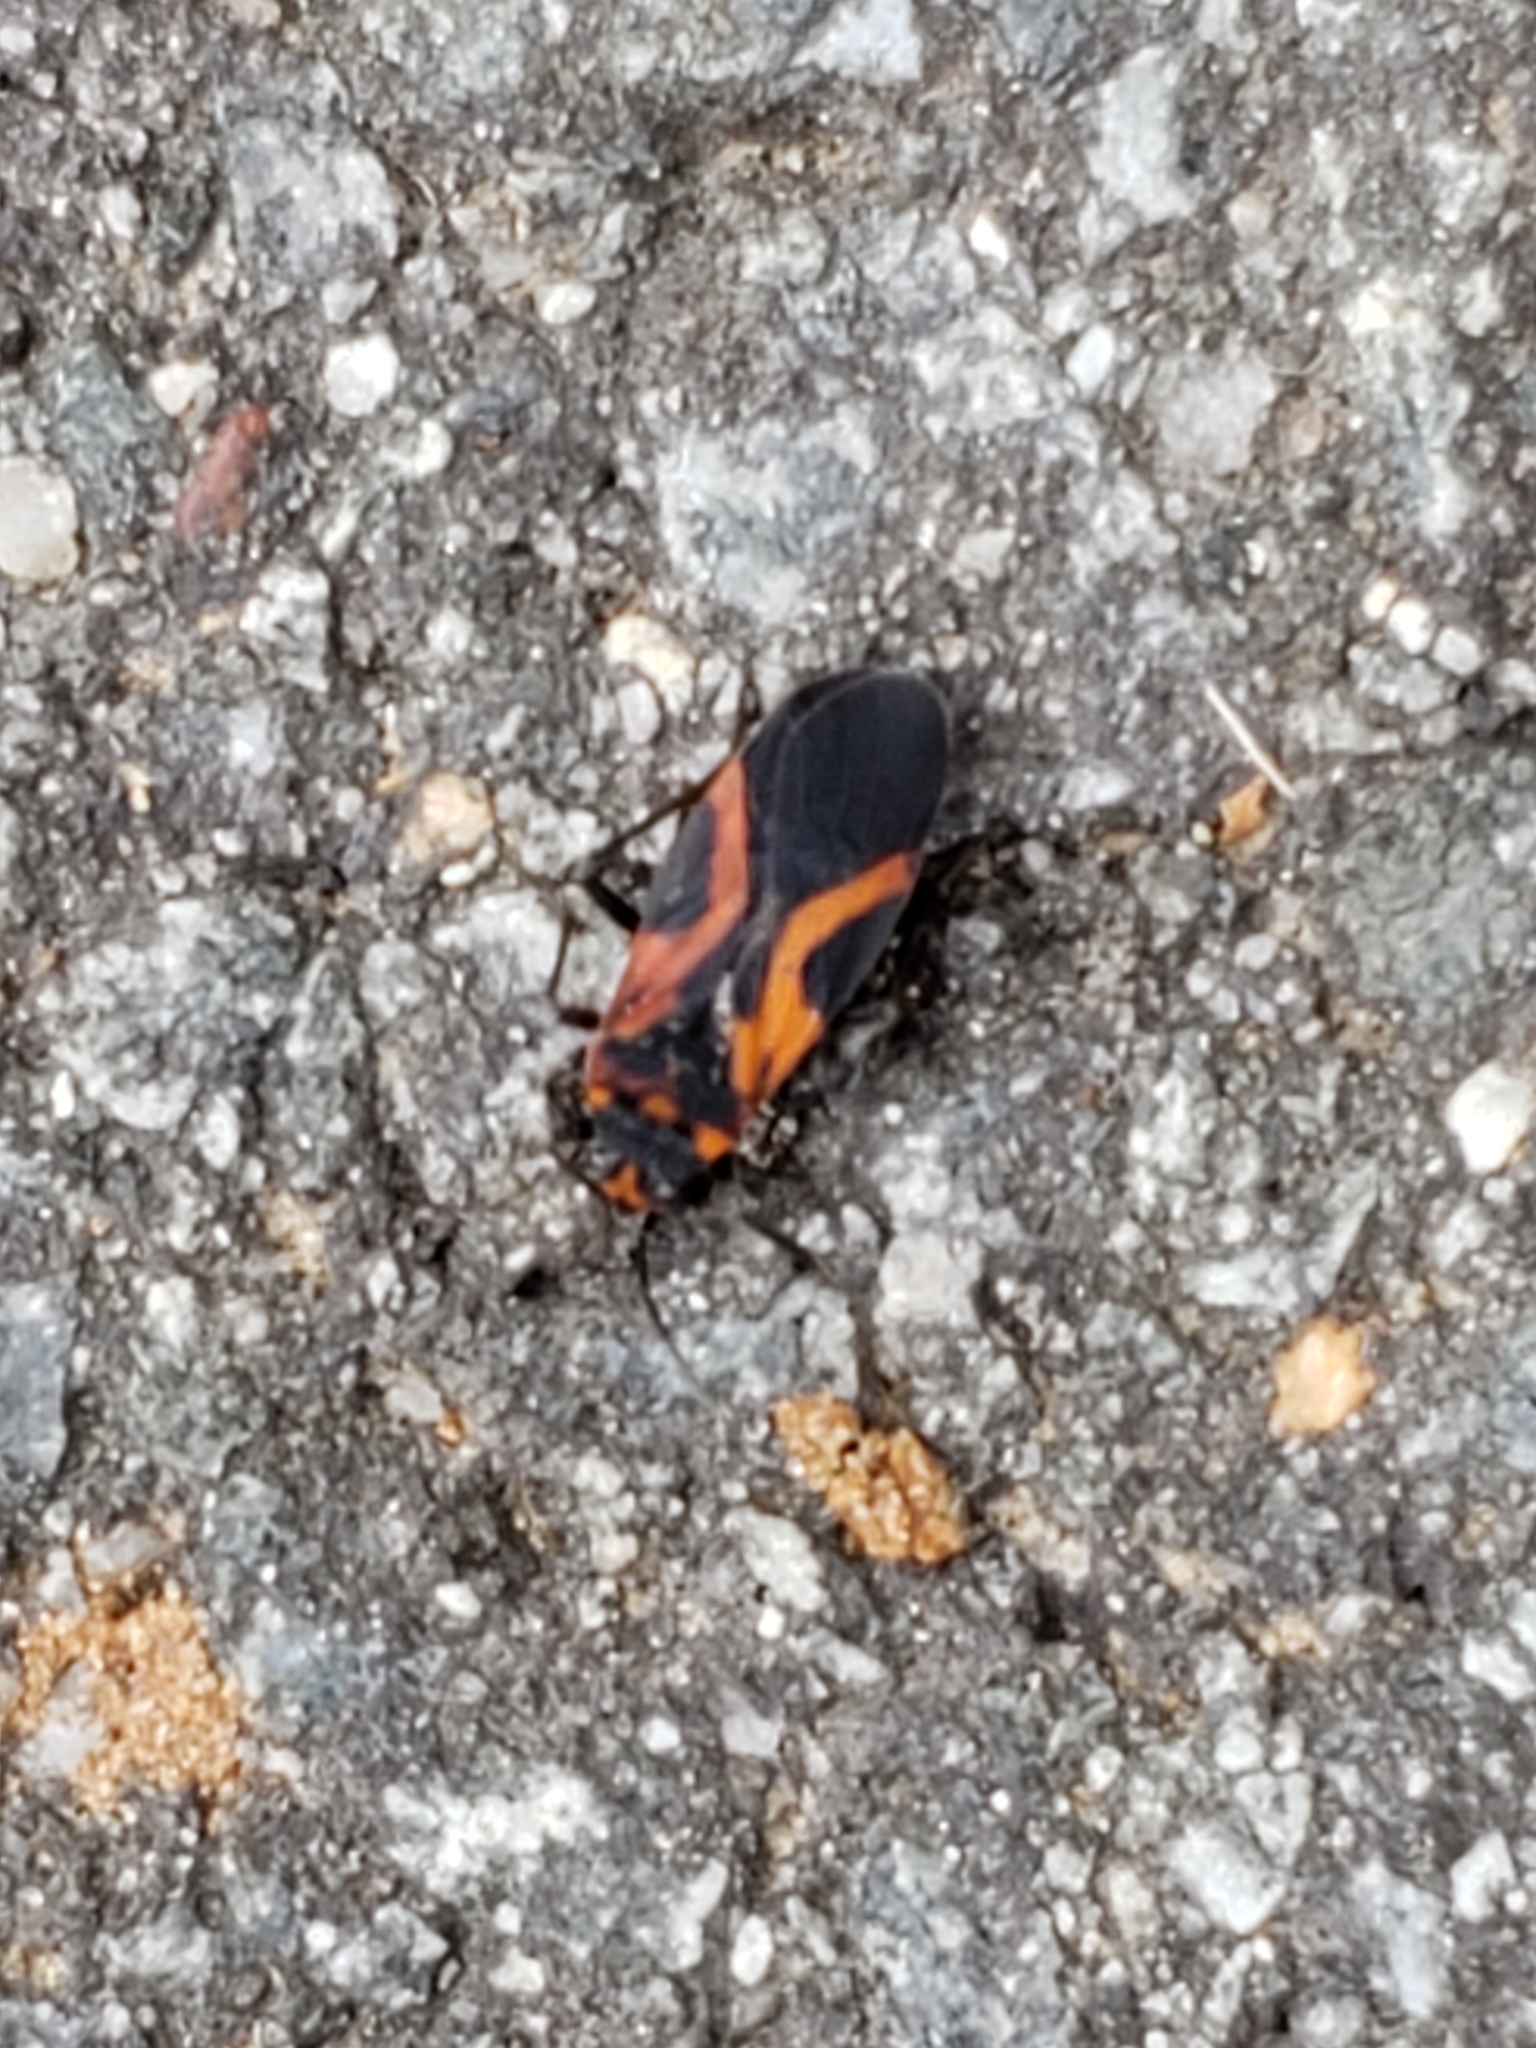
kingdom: Animalia
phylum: Arthropoda
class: Insecta
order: Hemiptera
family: Lygaeidae
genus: Lygaeus
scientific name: Lygaeus turcicus
